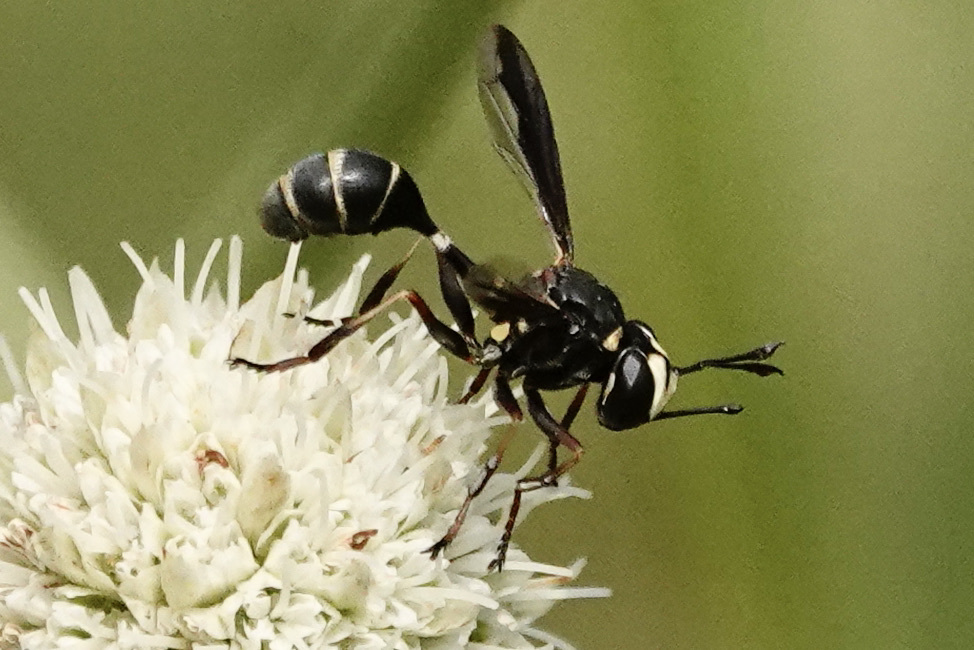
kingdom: Animalia
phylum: Arthropoda
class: Insecta
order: Diptera
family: Conopidae
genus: Physocephala
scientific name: Physocephala marginata
